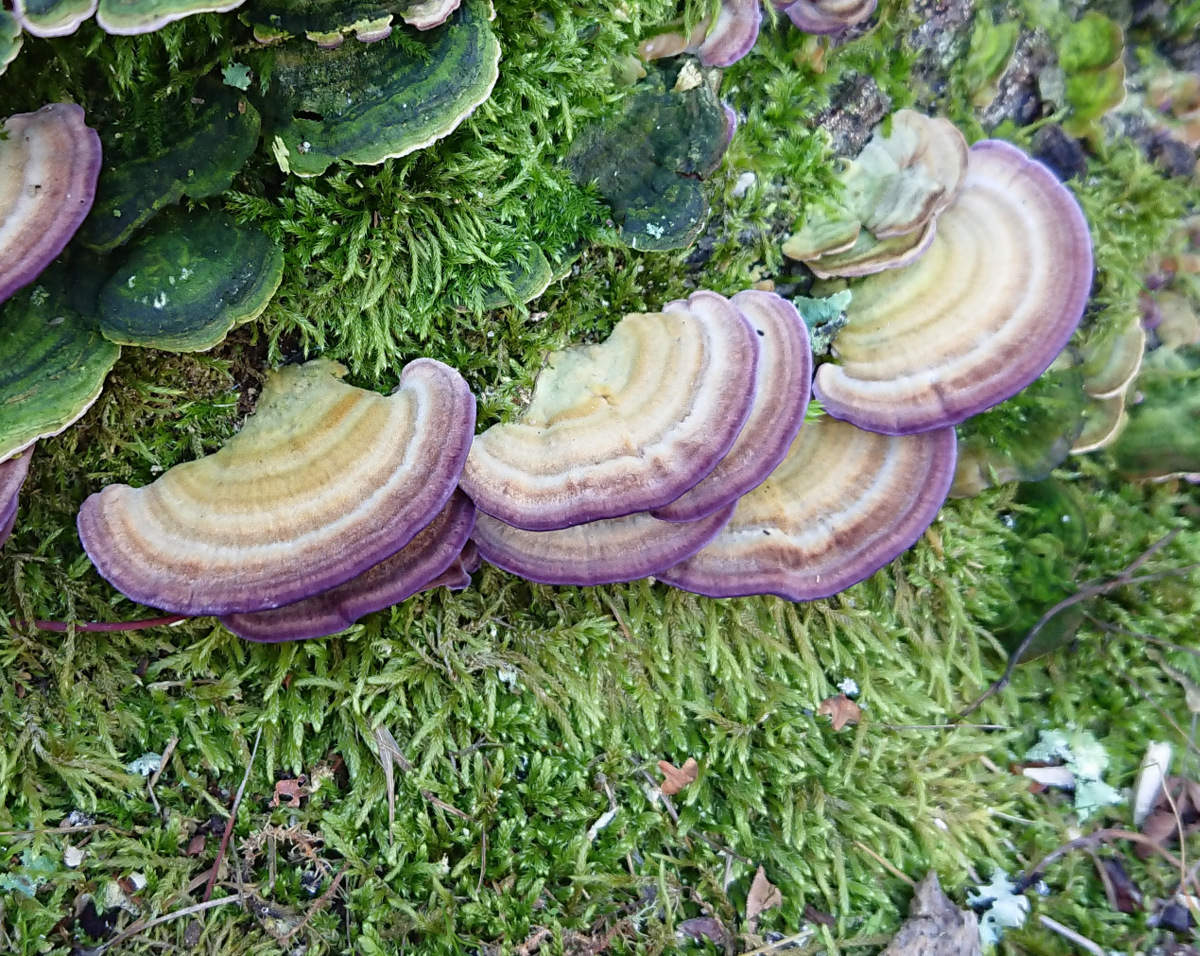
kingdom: Fungi
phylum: Basidiomycota
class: Agaricomycetes
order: Hymenochaetales
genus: Trichaptum
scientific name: Trichaptum biforme
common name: Violet-toothed polypore
